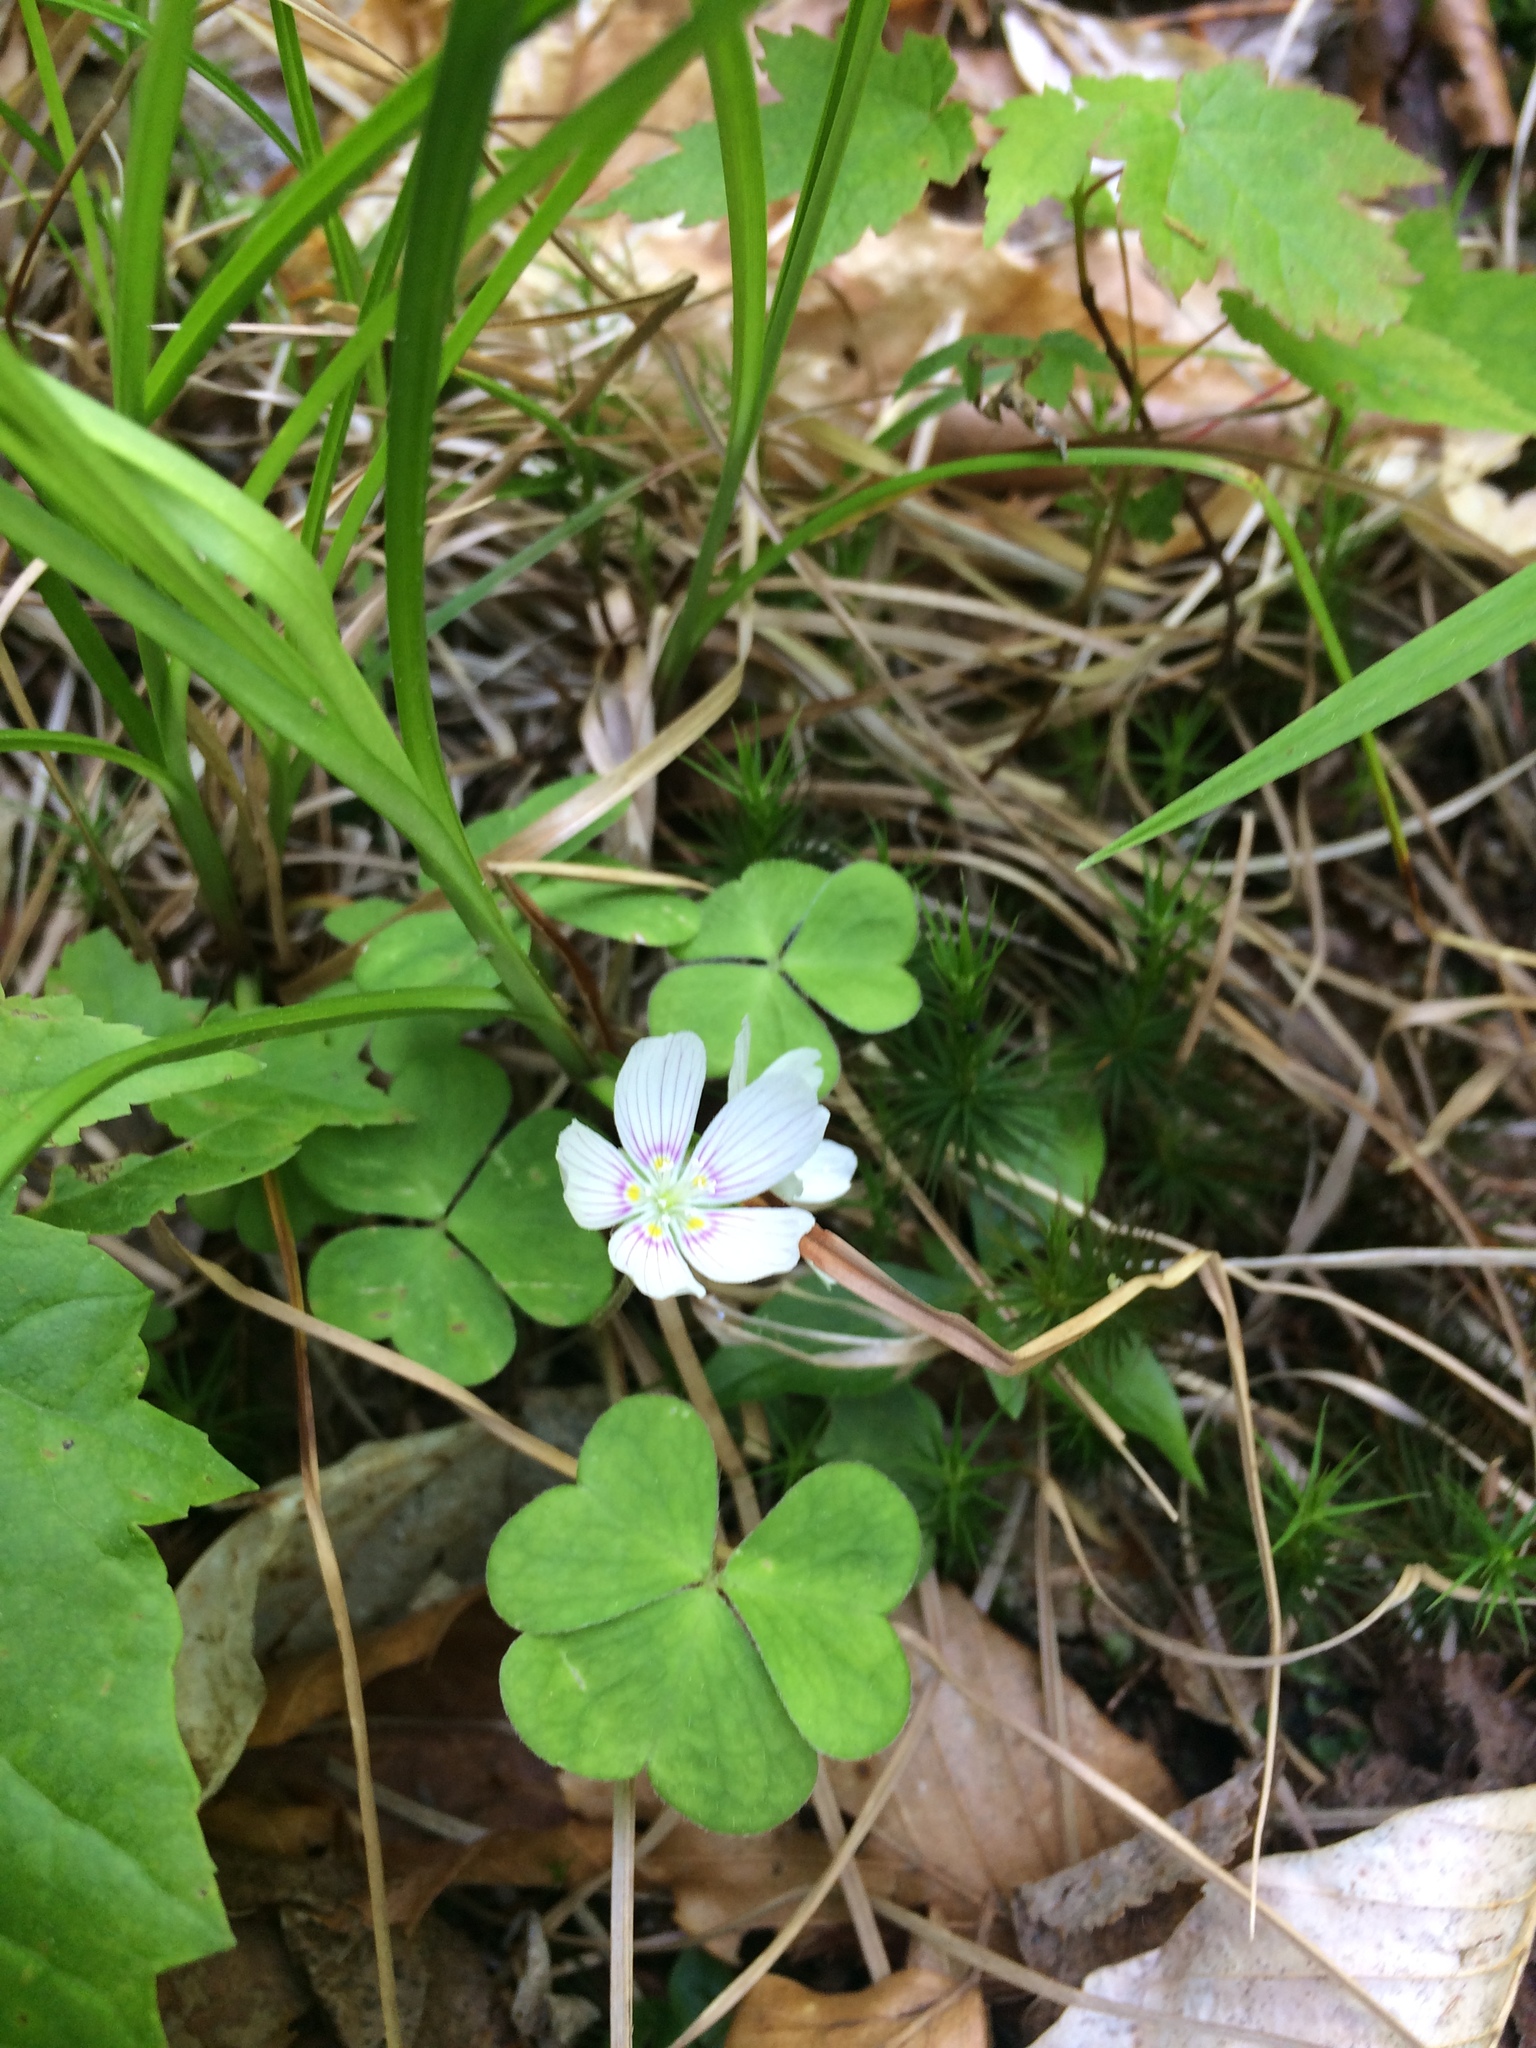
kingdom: Plantae
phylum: Tracheophyta
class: Magnoliopsida
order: Oxalidales
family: Oxalidaceae
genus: Oxalis
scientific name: Oxalis montana
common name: American wood-sorrel
